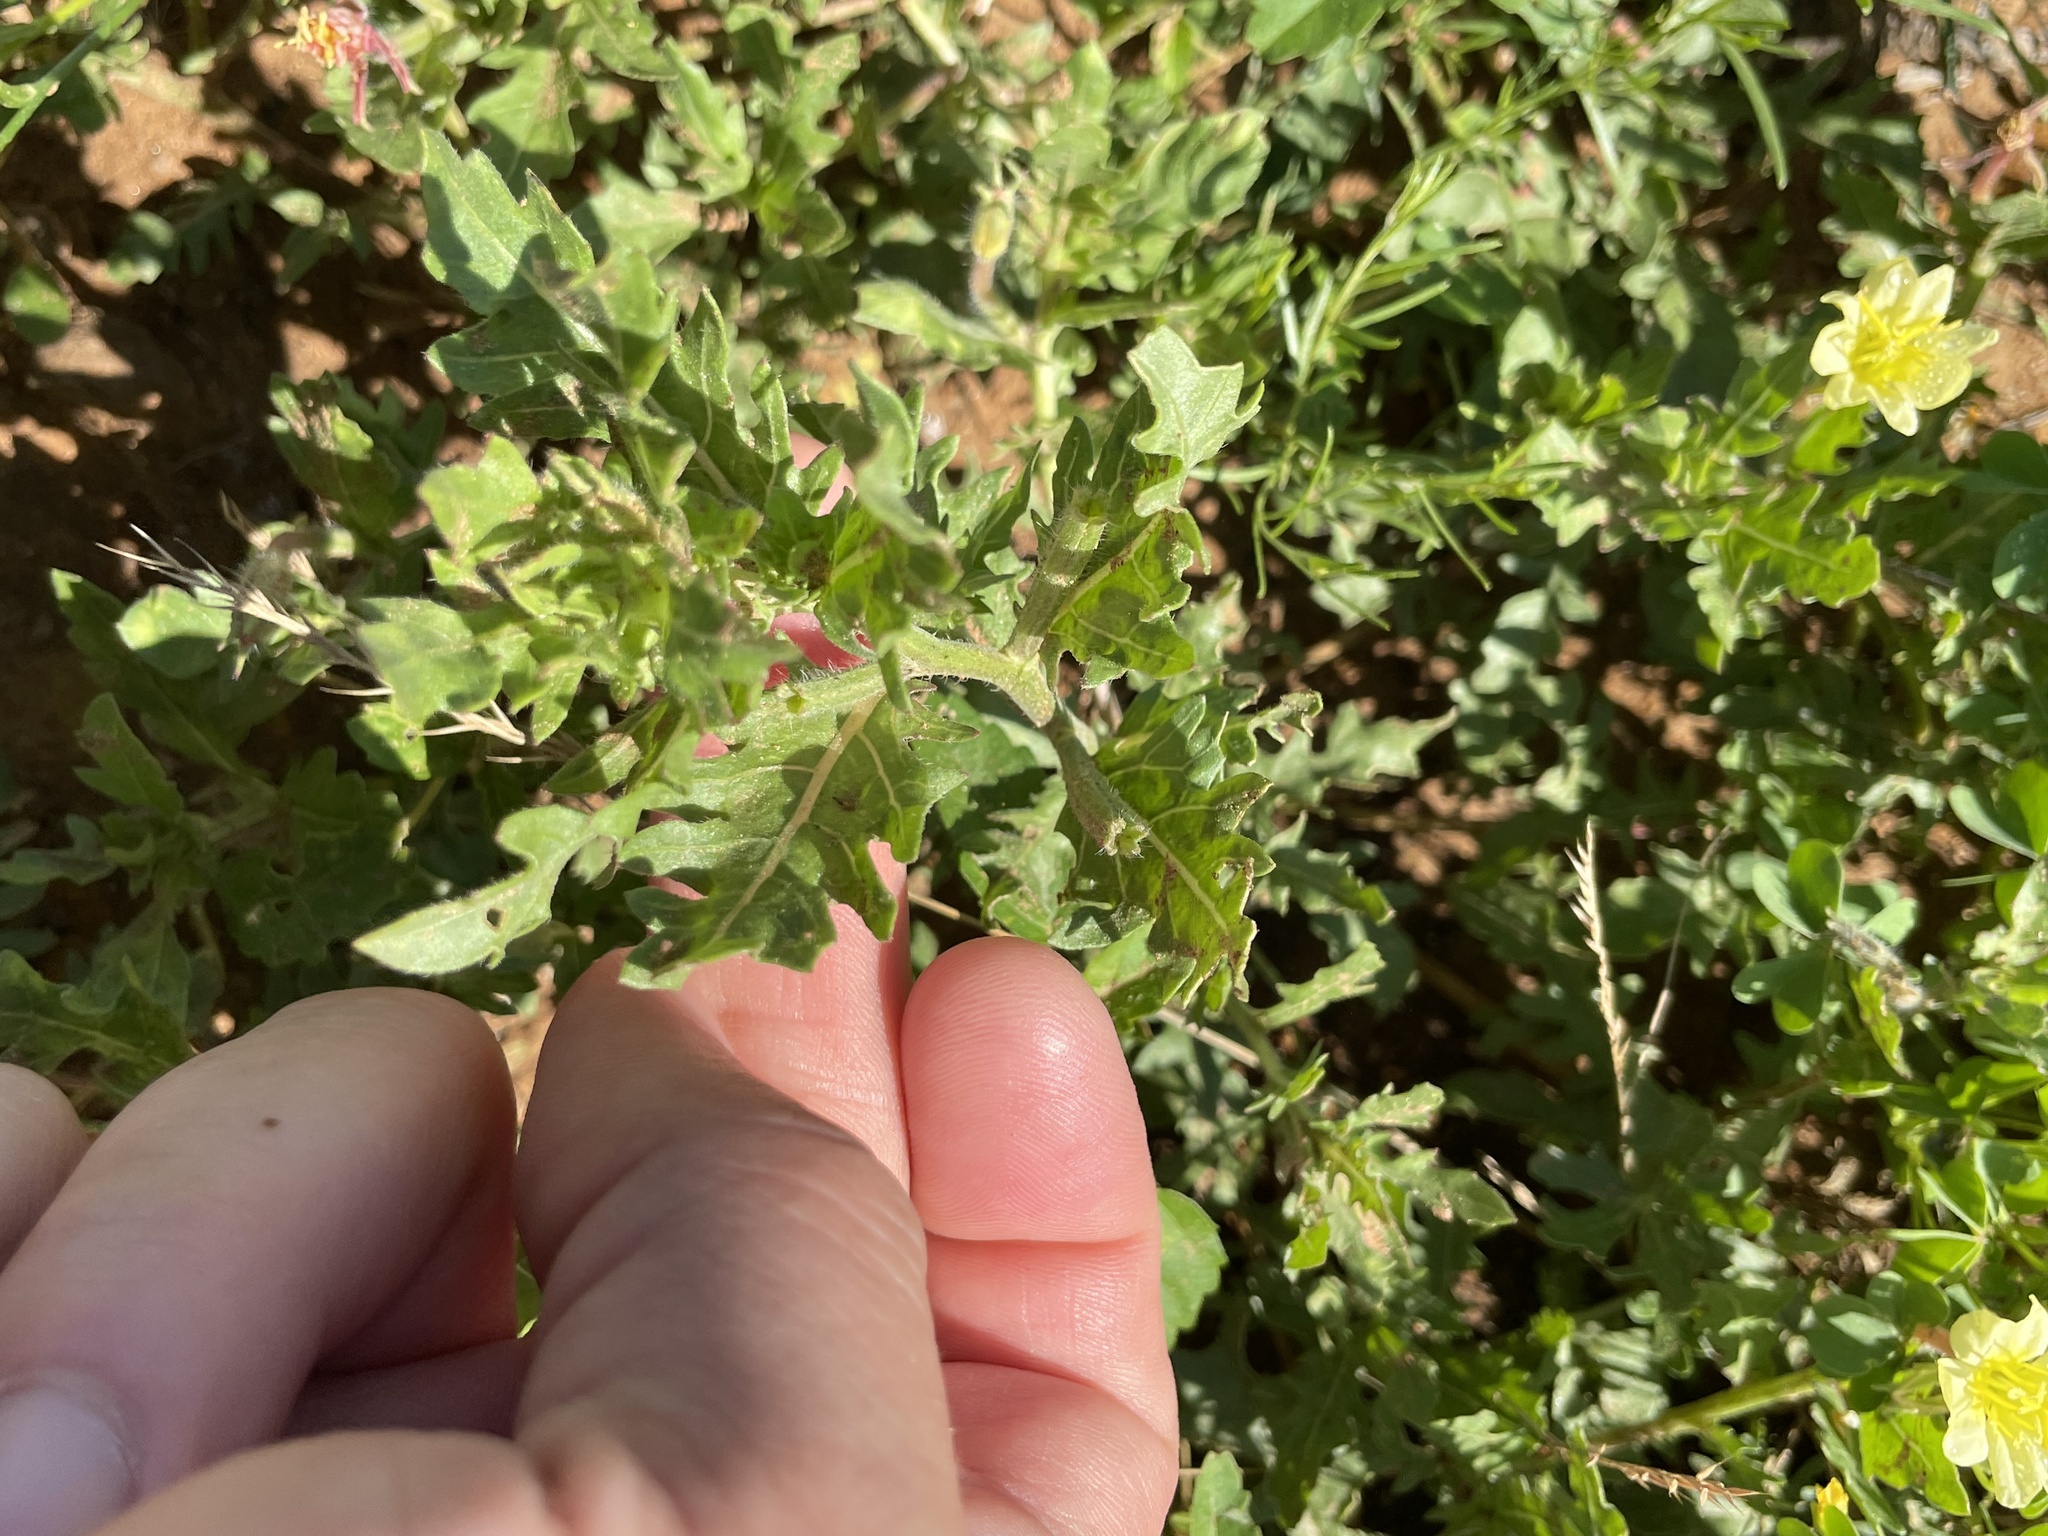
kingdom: Plantae
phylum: Tracheophyta
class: Magnoliopsida
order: Myrtales
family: Onagraceae
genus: Oenothera
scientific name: Oenothera laciniata
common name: Cut-leaved evening-primrose
